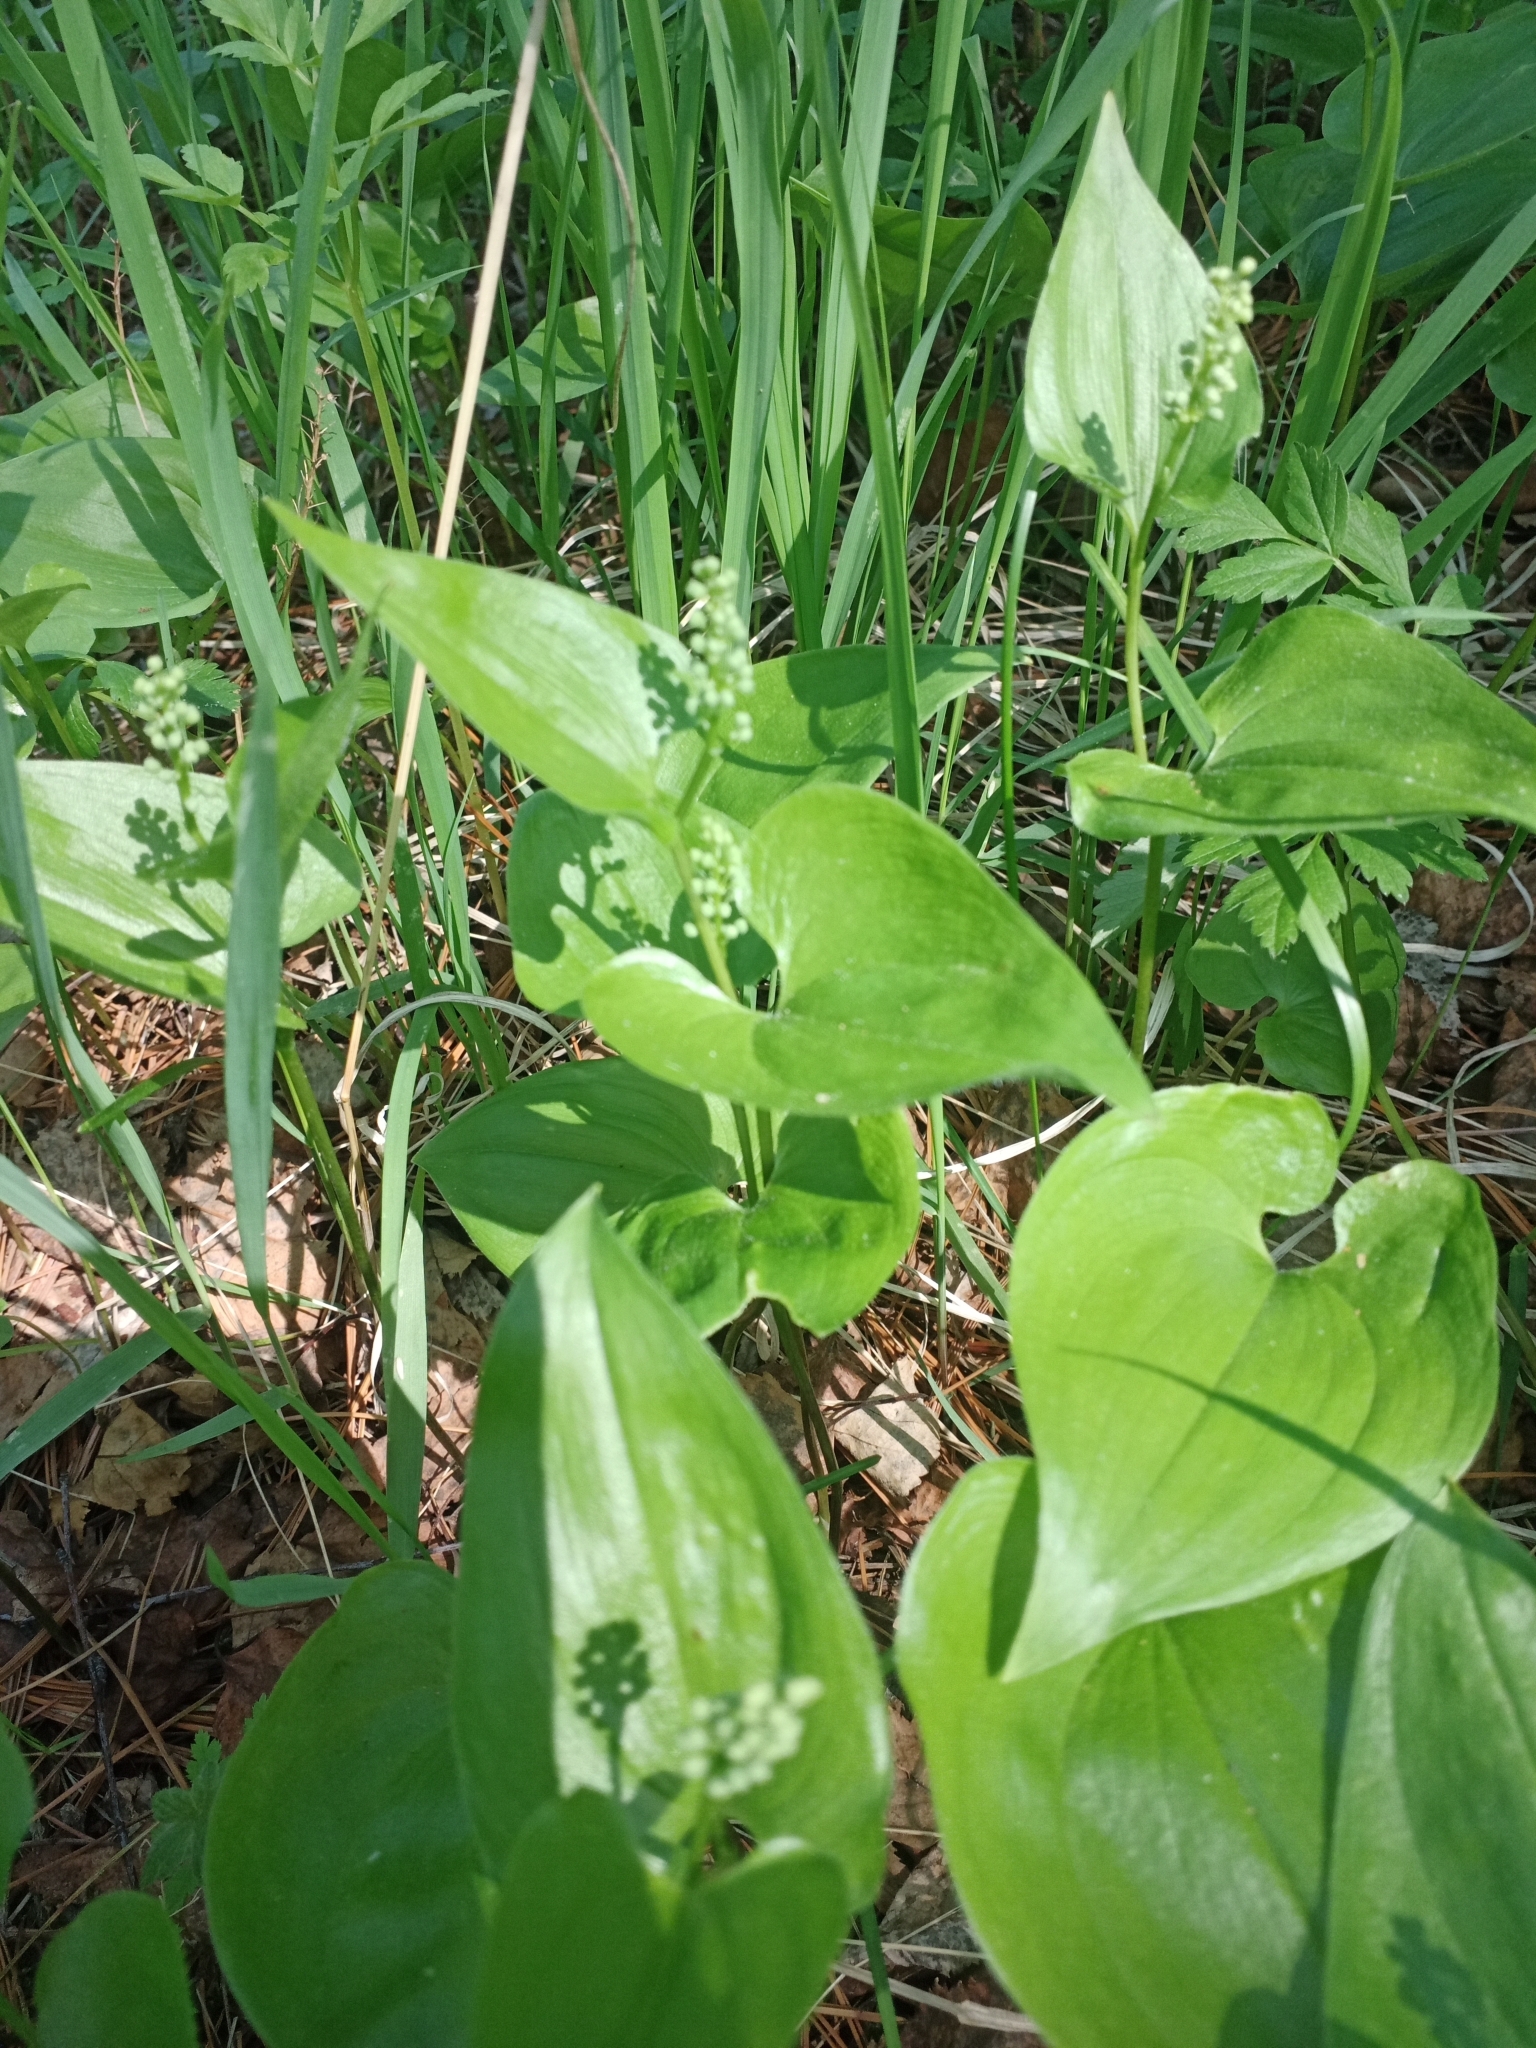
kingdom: Plantae
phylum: Tracheophyta
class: Liliopsida
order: Asparagales
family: Asparagaceae
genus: Maianthemum
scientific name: Maianthemum bifolium
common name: May lily
